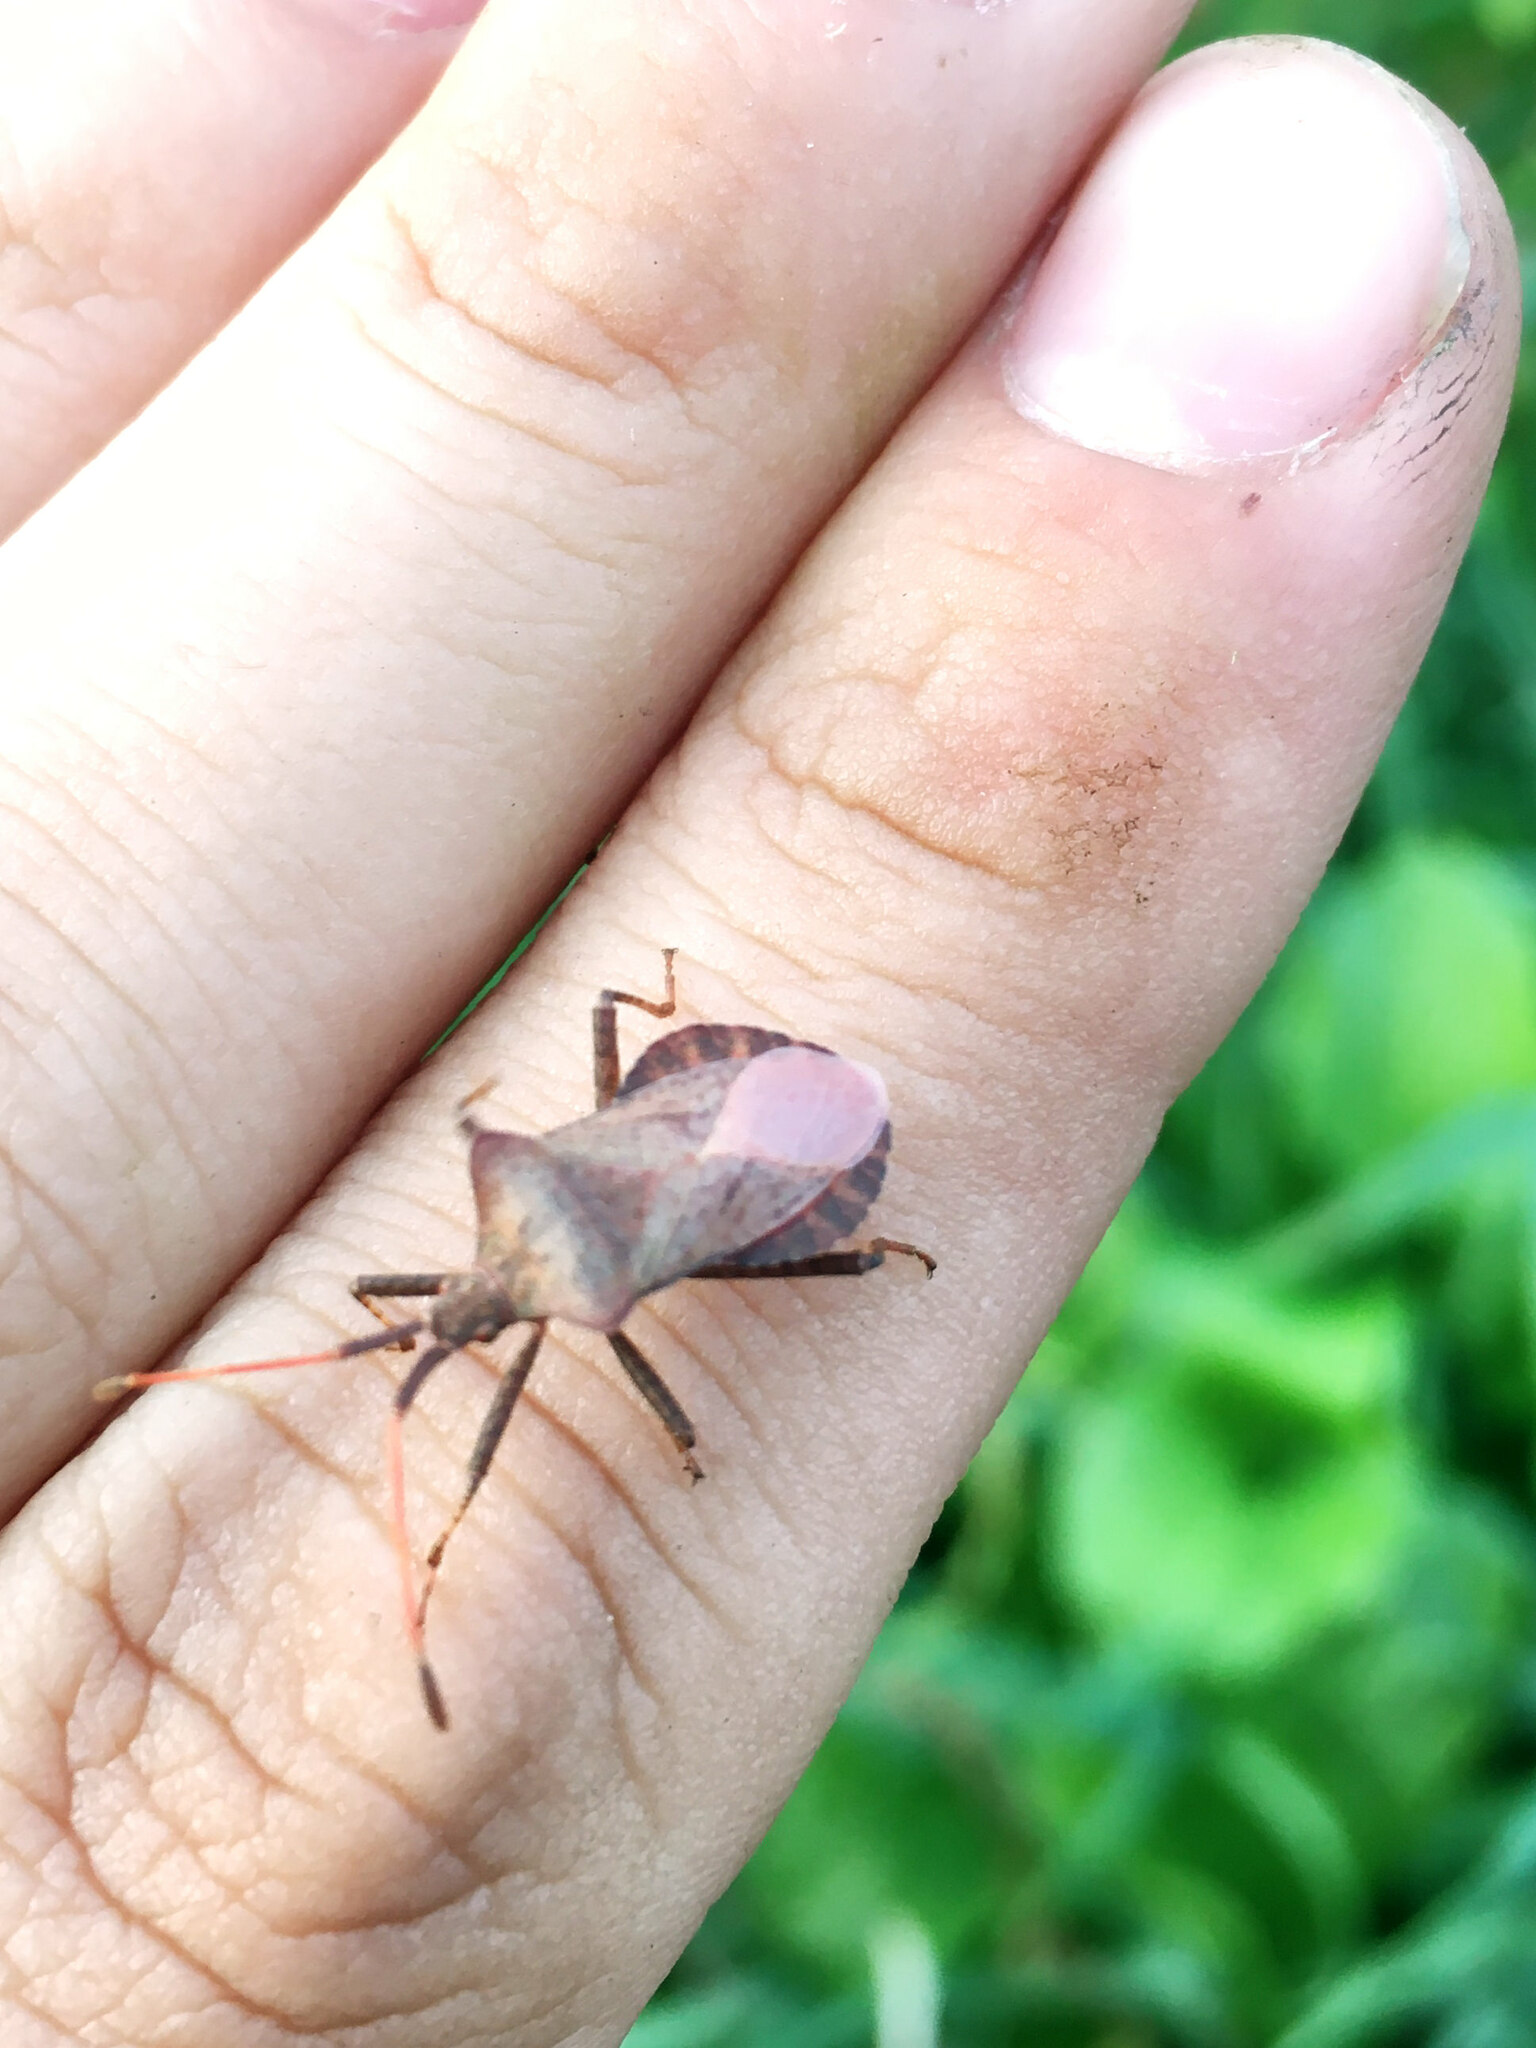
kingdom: Animalia
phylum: Arthropoda
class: Insecta
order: Hemiptera
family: Coreidae
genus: Coreus
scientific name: Coreus marginatus
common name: Dock bug
